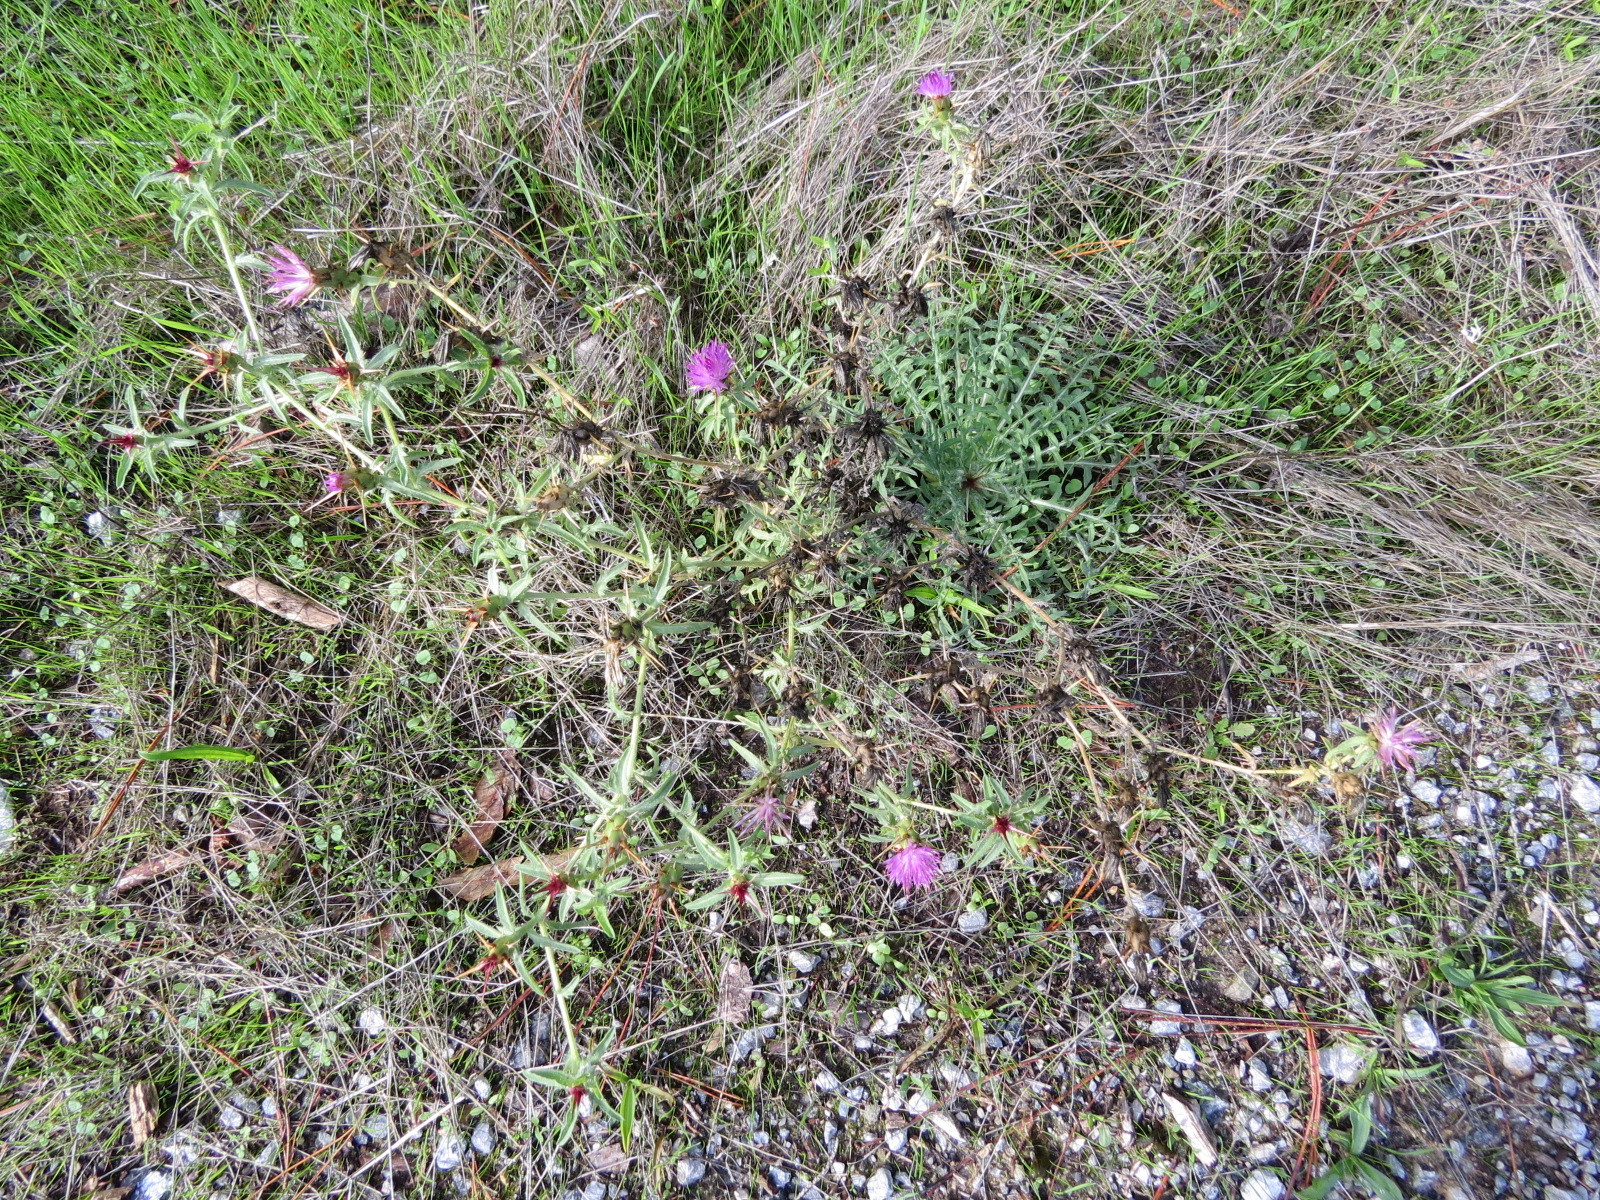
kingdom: Plantae
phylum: Tracheophyta
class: Magnoliopsida
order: Asterales
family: Asteraceae
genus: Centaurea
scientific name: Centaurea calcitrapa
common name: Red star-thistle
